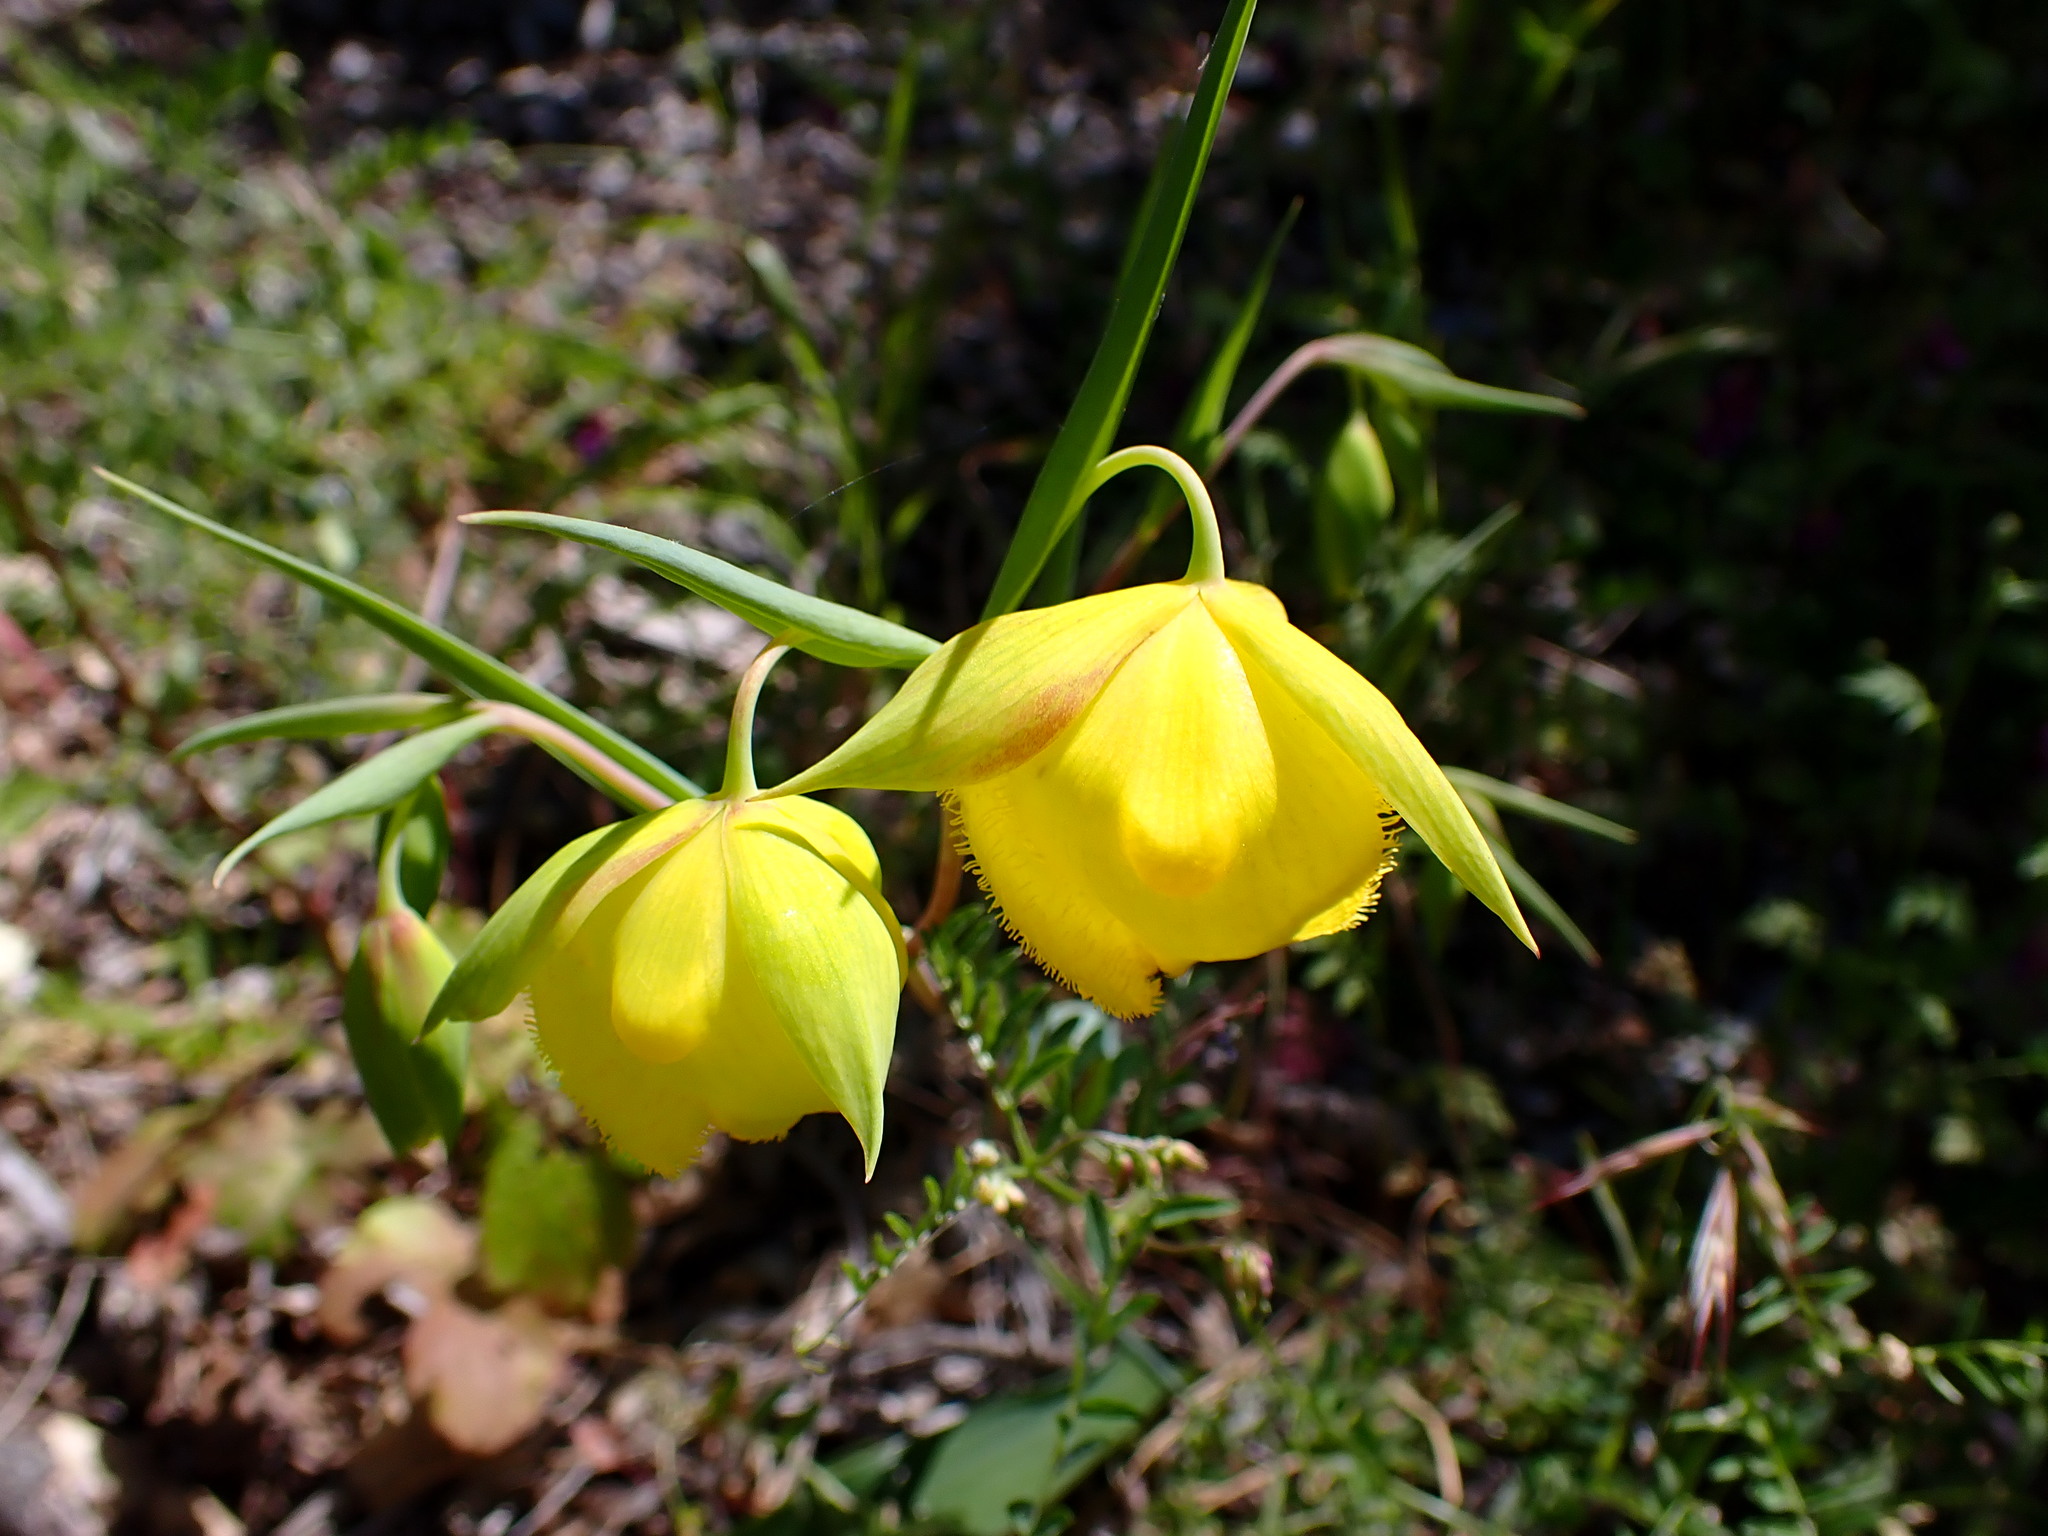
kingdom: Plantae
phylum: Tracheophyta
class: Liliopsida
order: Liliales
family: Liliaceae
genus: Calochortus
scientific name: Calochortus pulchellus
